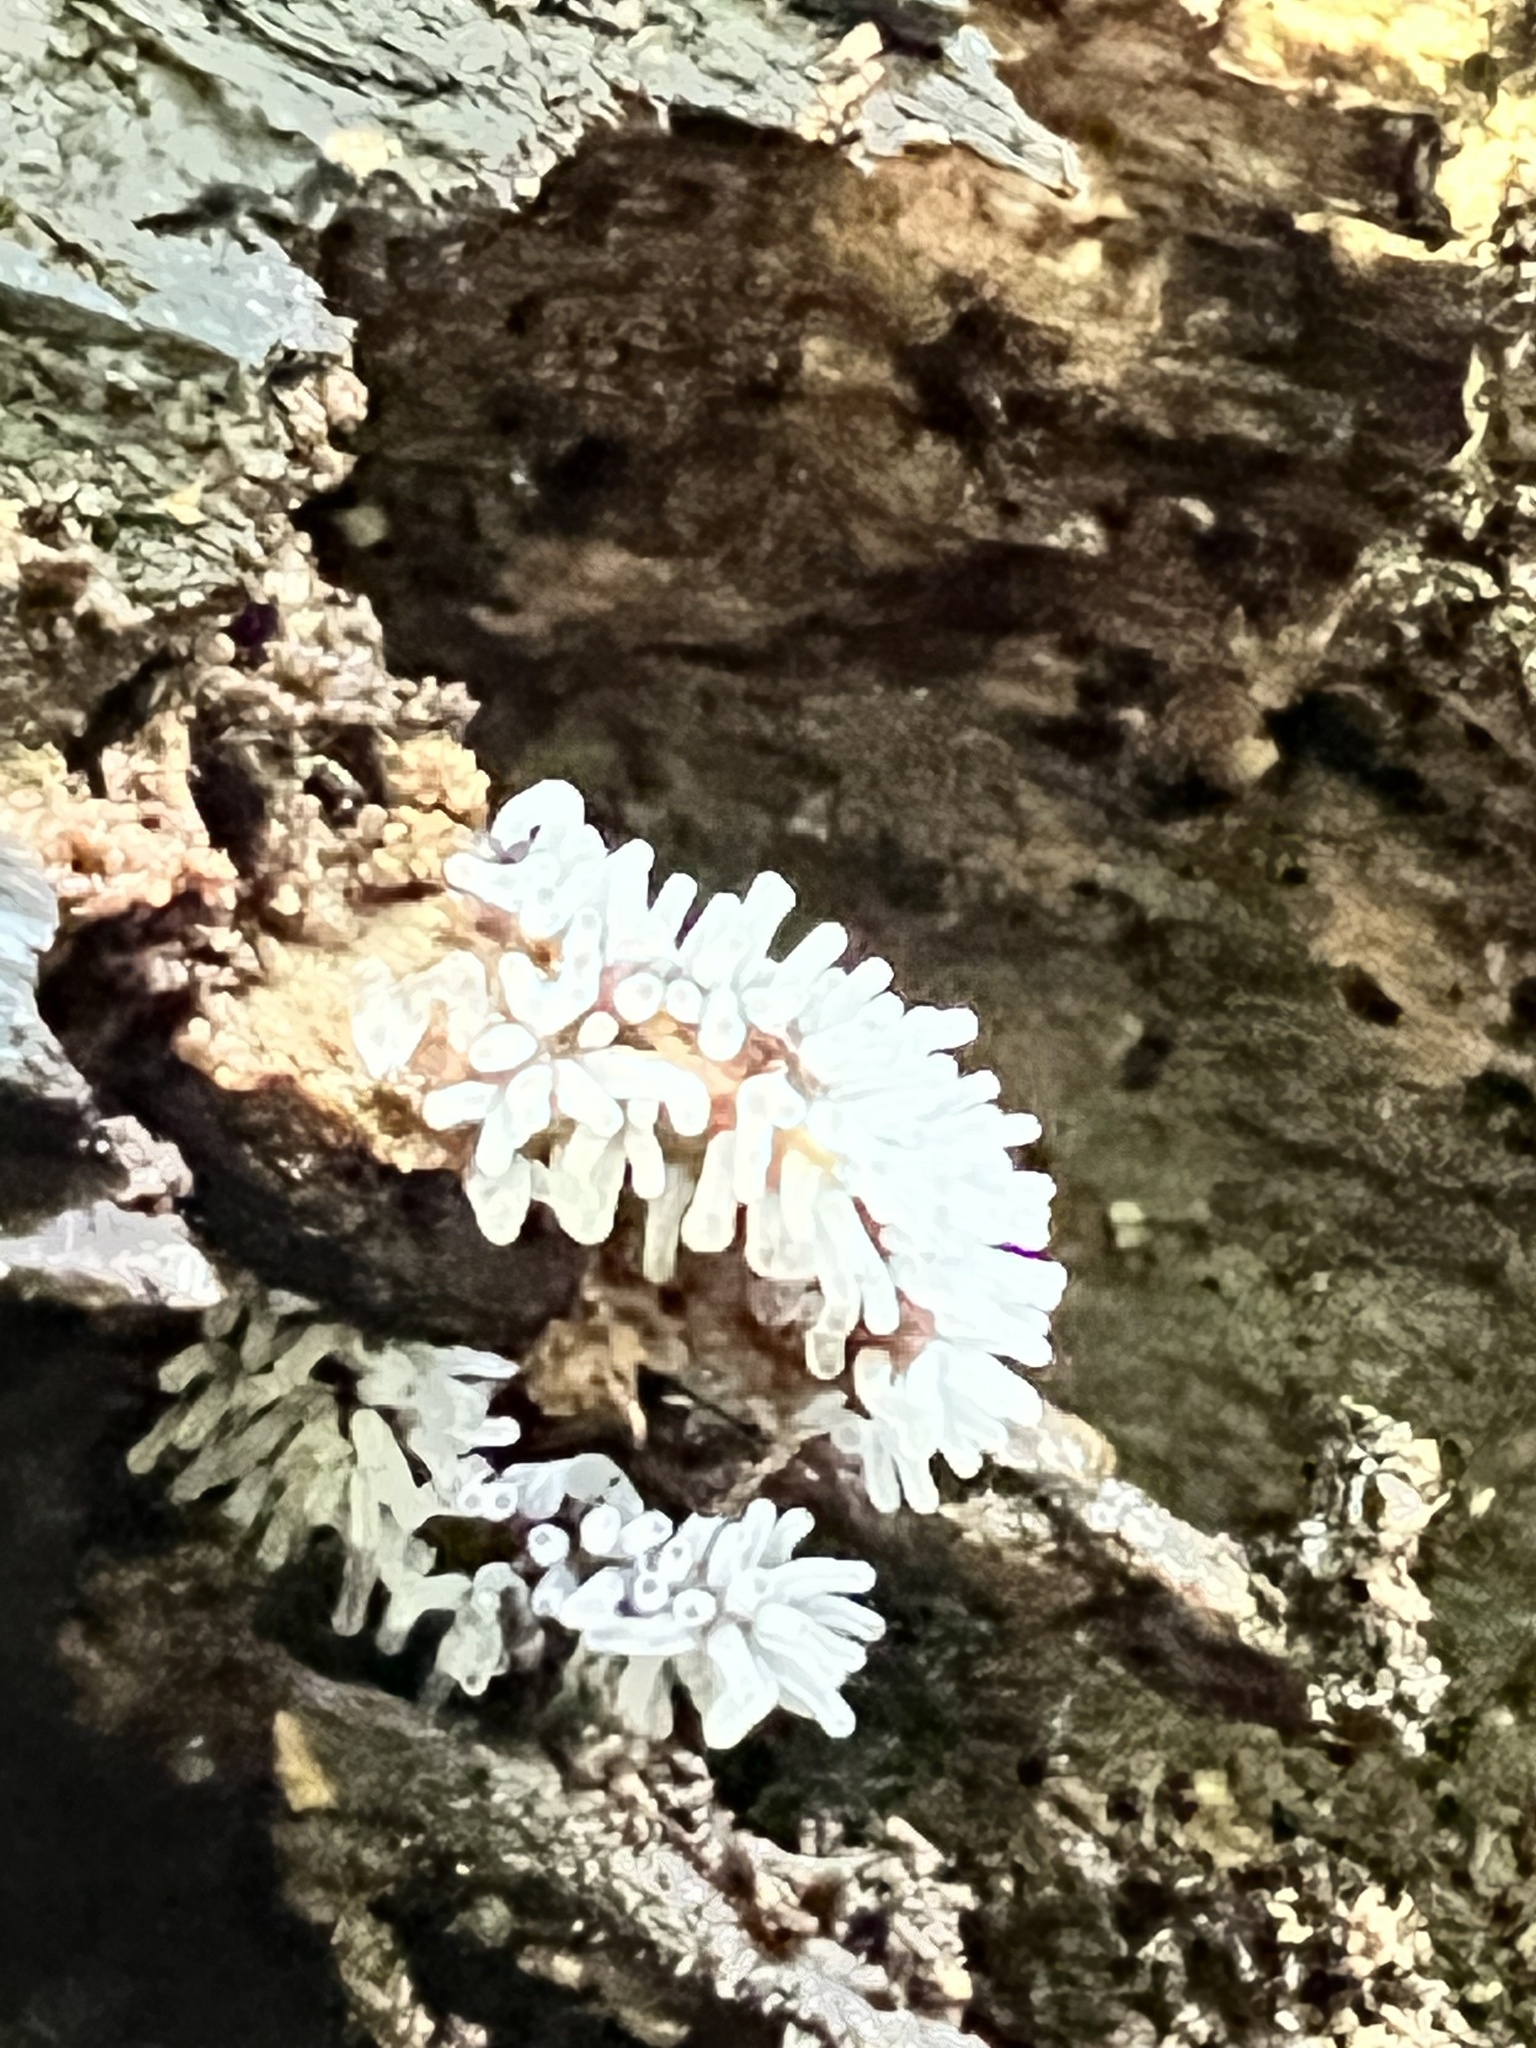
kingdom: Protozoa
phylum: Mycetozoa
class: Protosteliomycetes
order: Ceratiomyxales
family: Ceratiomyxaceae
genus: Ceratiomyxa
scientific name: Ceratiomyxa fruticulosa
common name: Honeycomb coral slime mold
